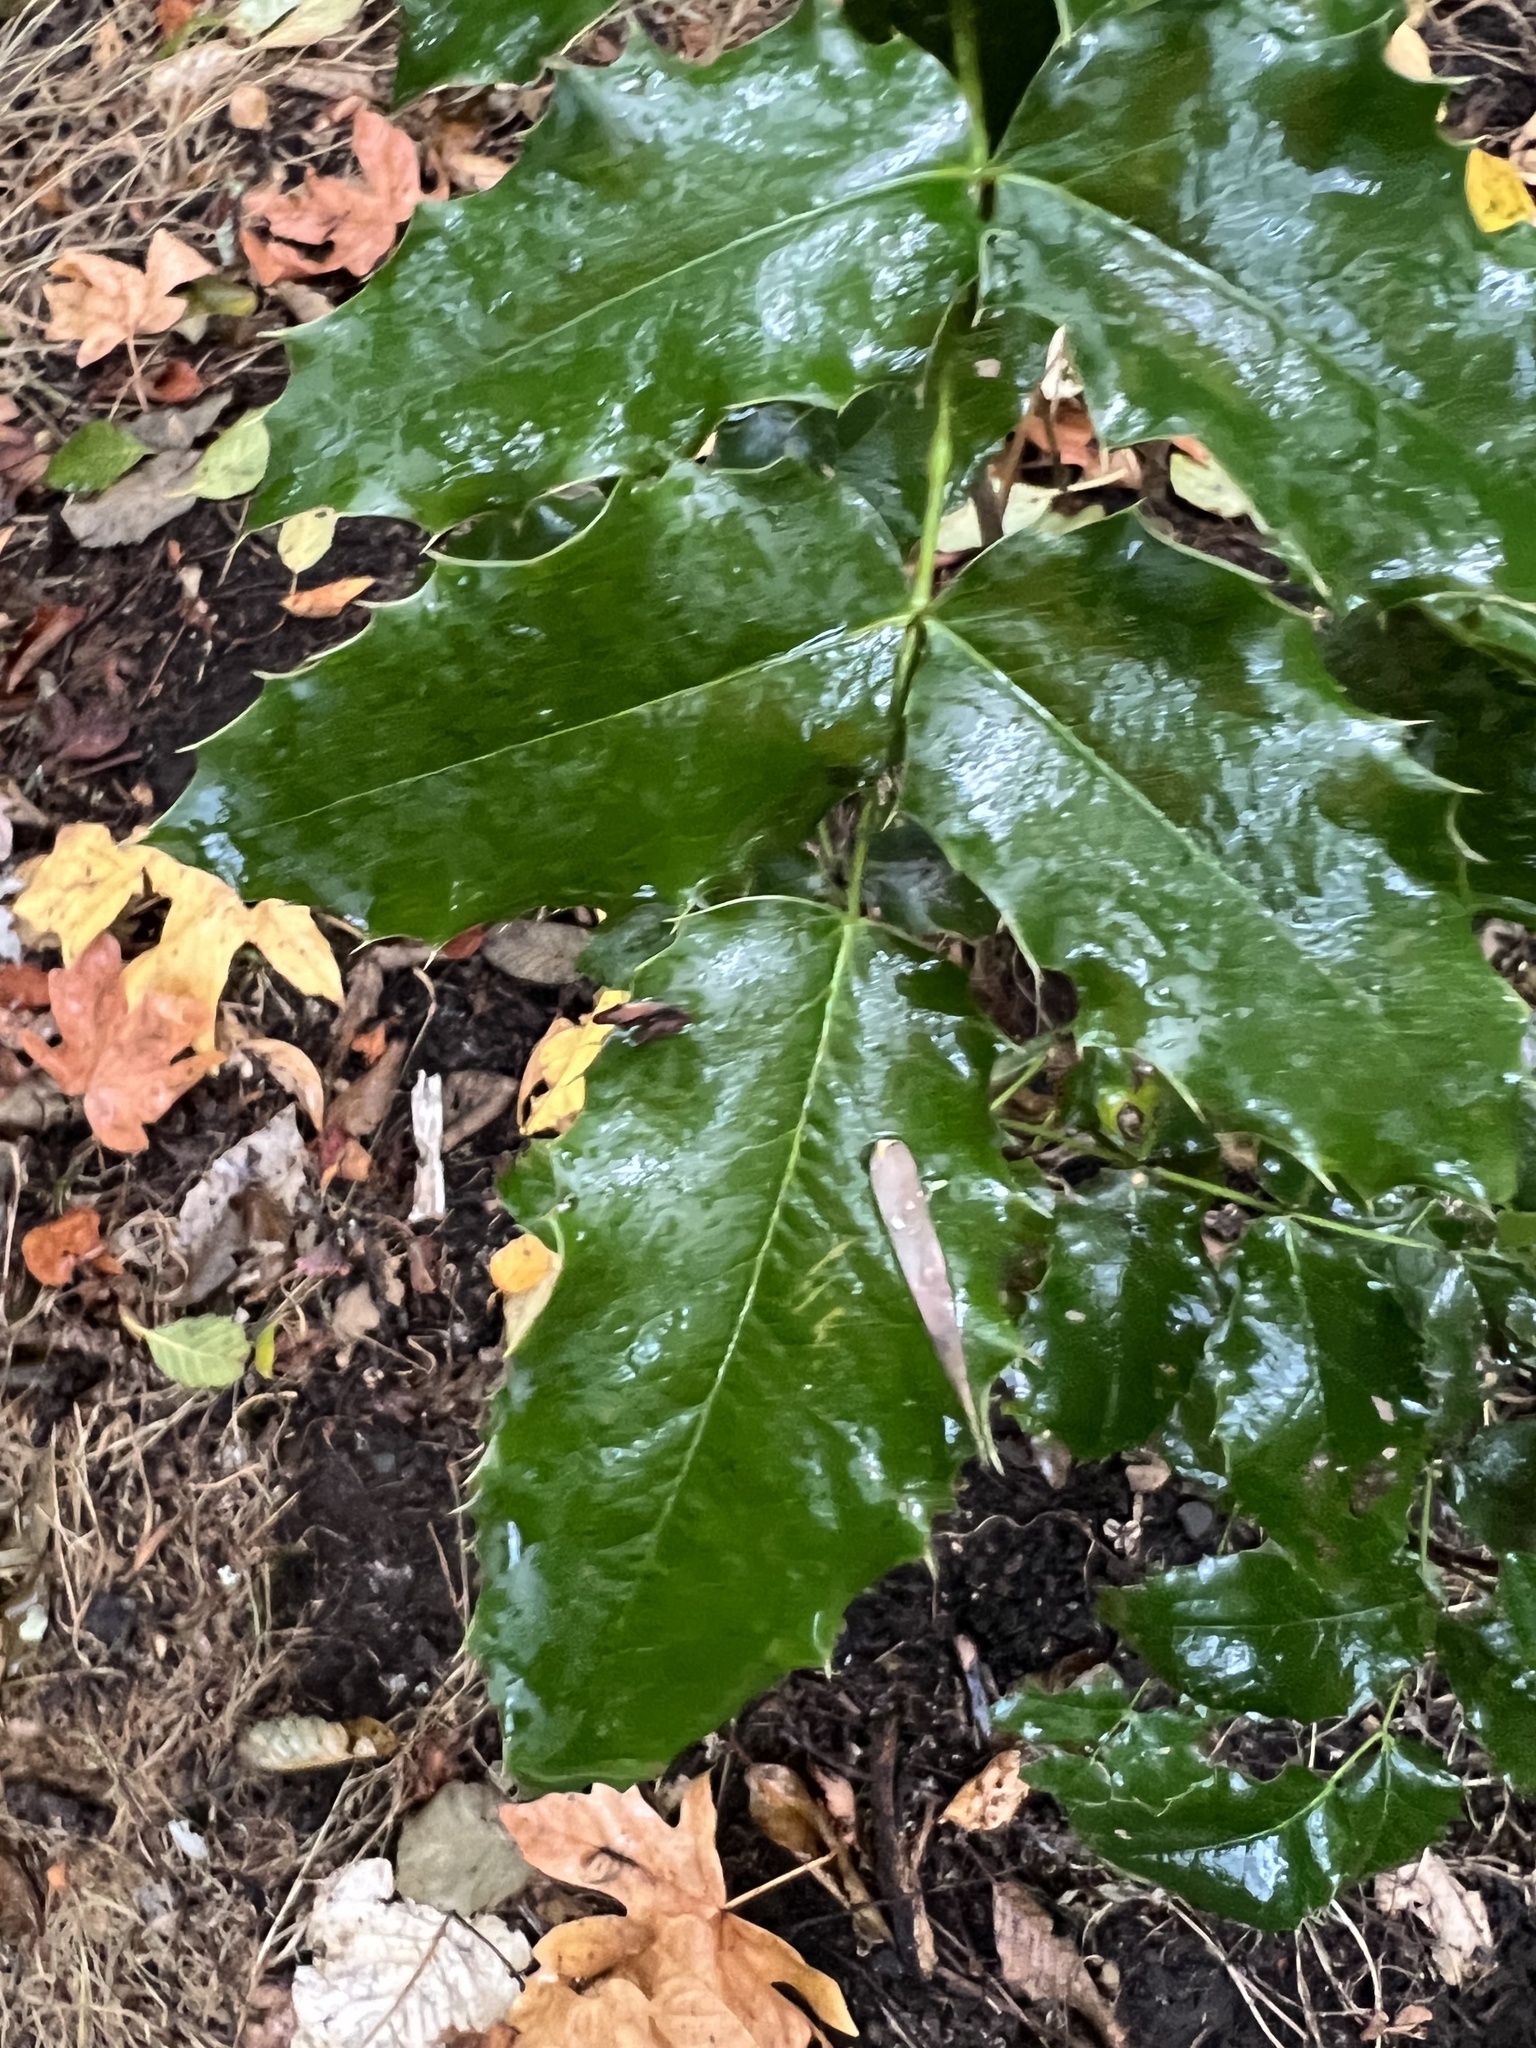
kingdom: Plantae
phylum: Tracheophyta
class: Magnoliopsida
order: Ranunculales
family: Berberidaceae
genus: Mahonia
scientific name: Mahonia aquifolium
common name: Oregon-grape
